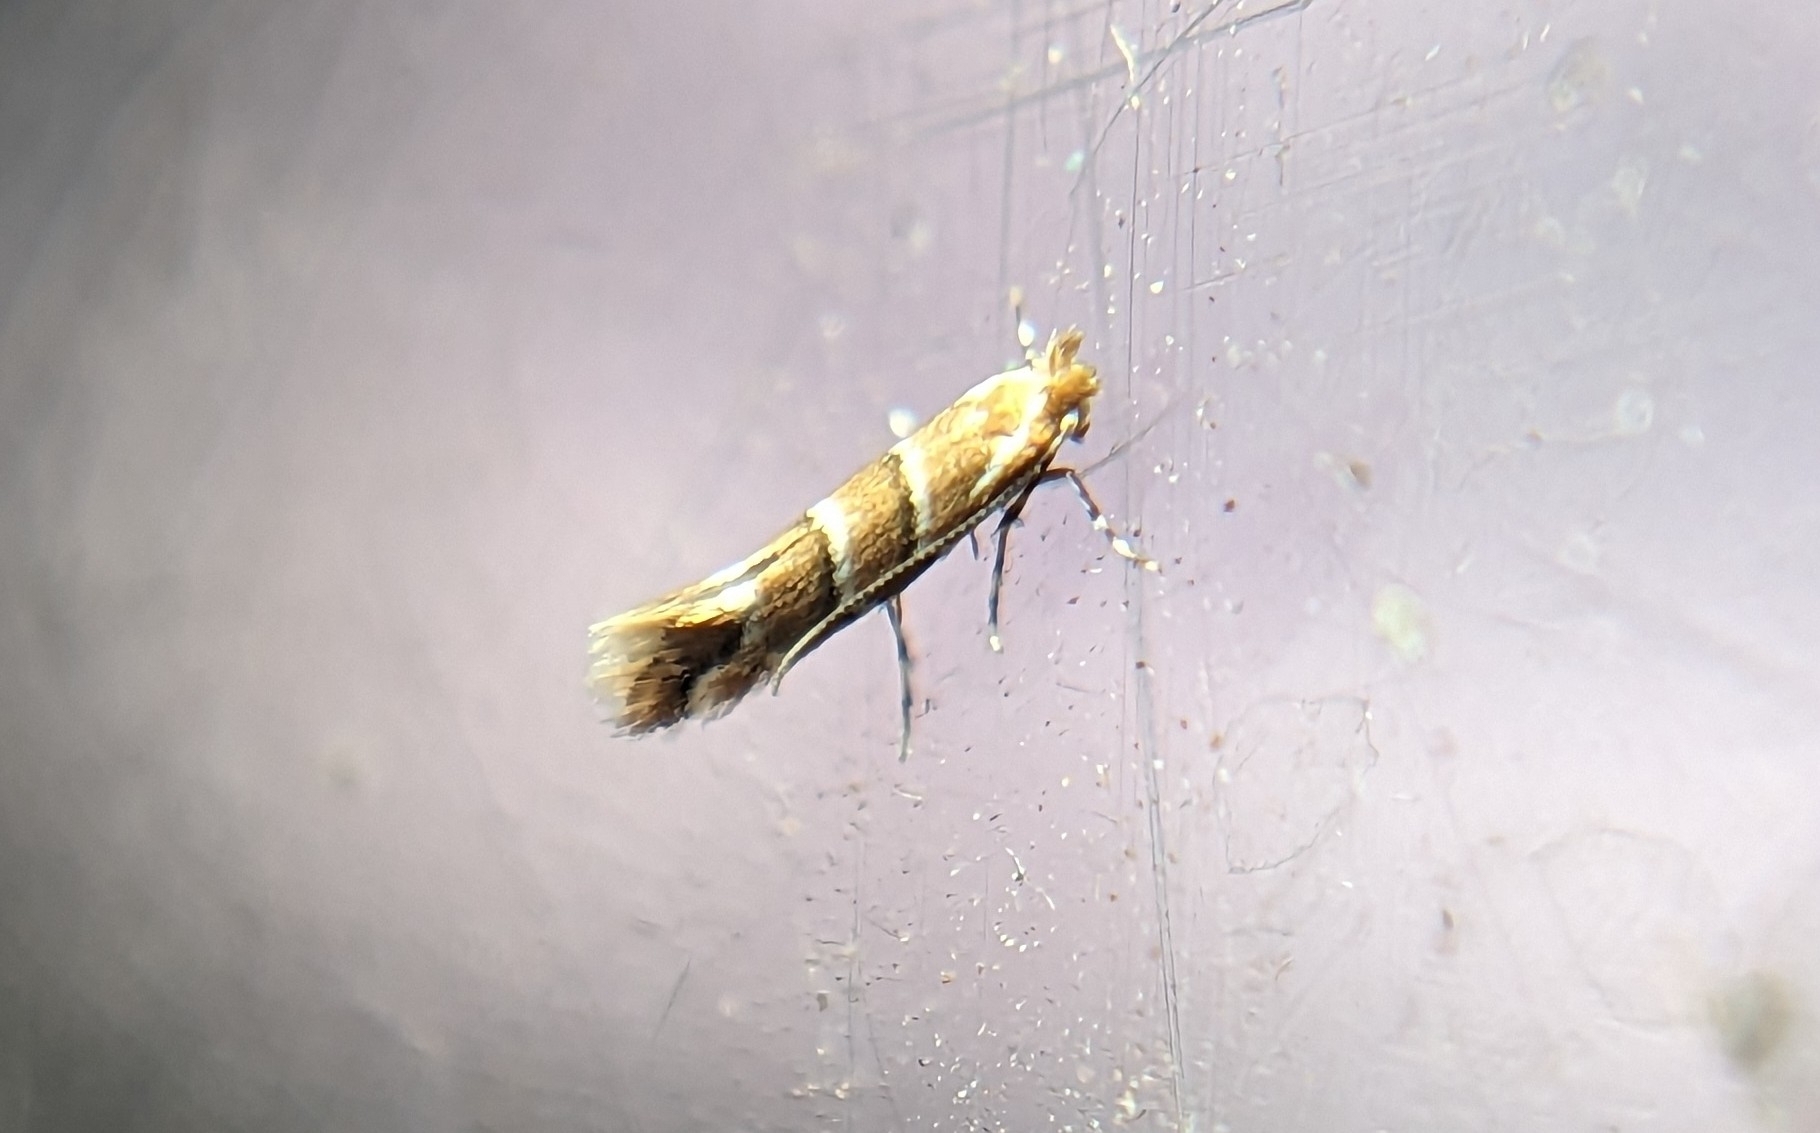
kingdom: Animalia
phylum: Arthropoda
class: Insecta
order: Lepidoptera
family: Gracillariidae
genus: Cameraria
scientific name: Cameraria ohridella
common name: Horse-chestnut leaf-miner
